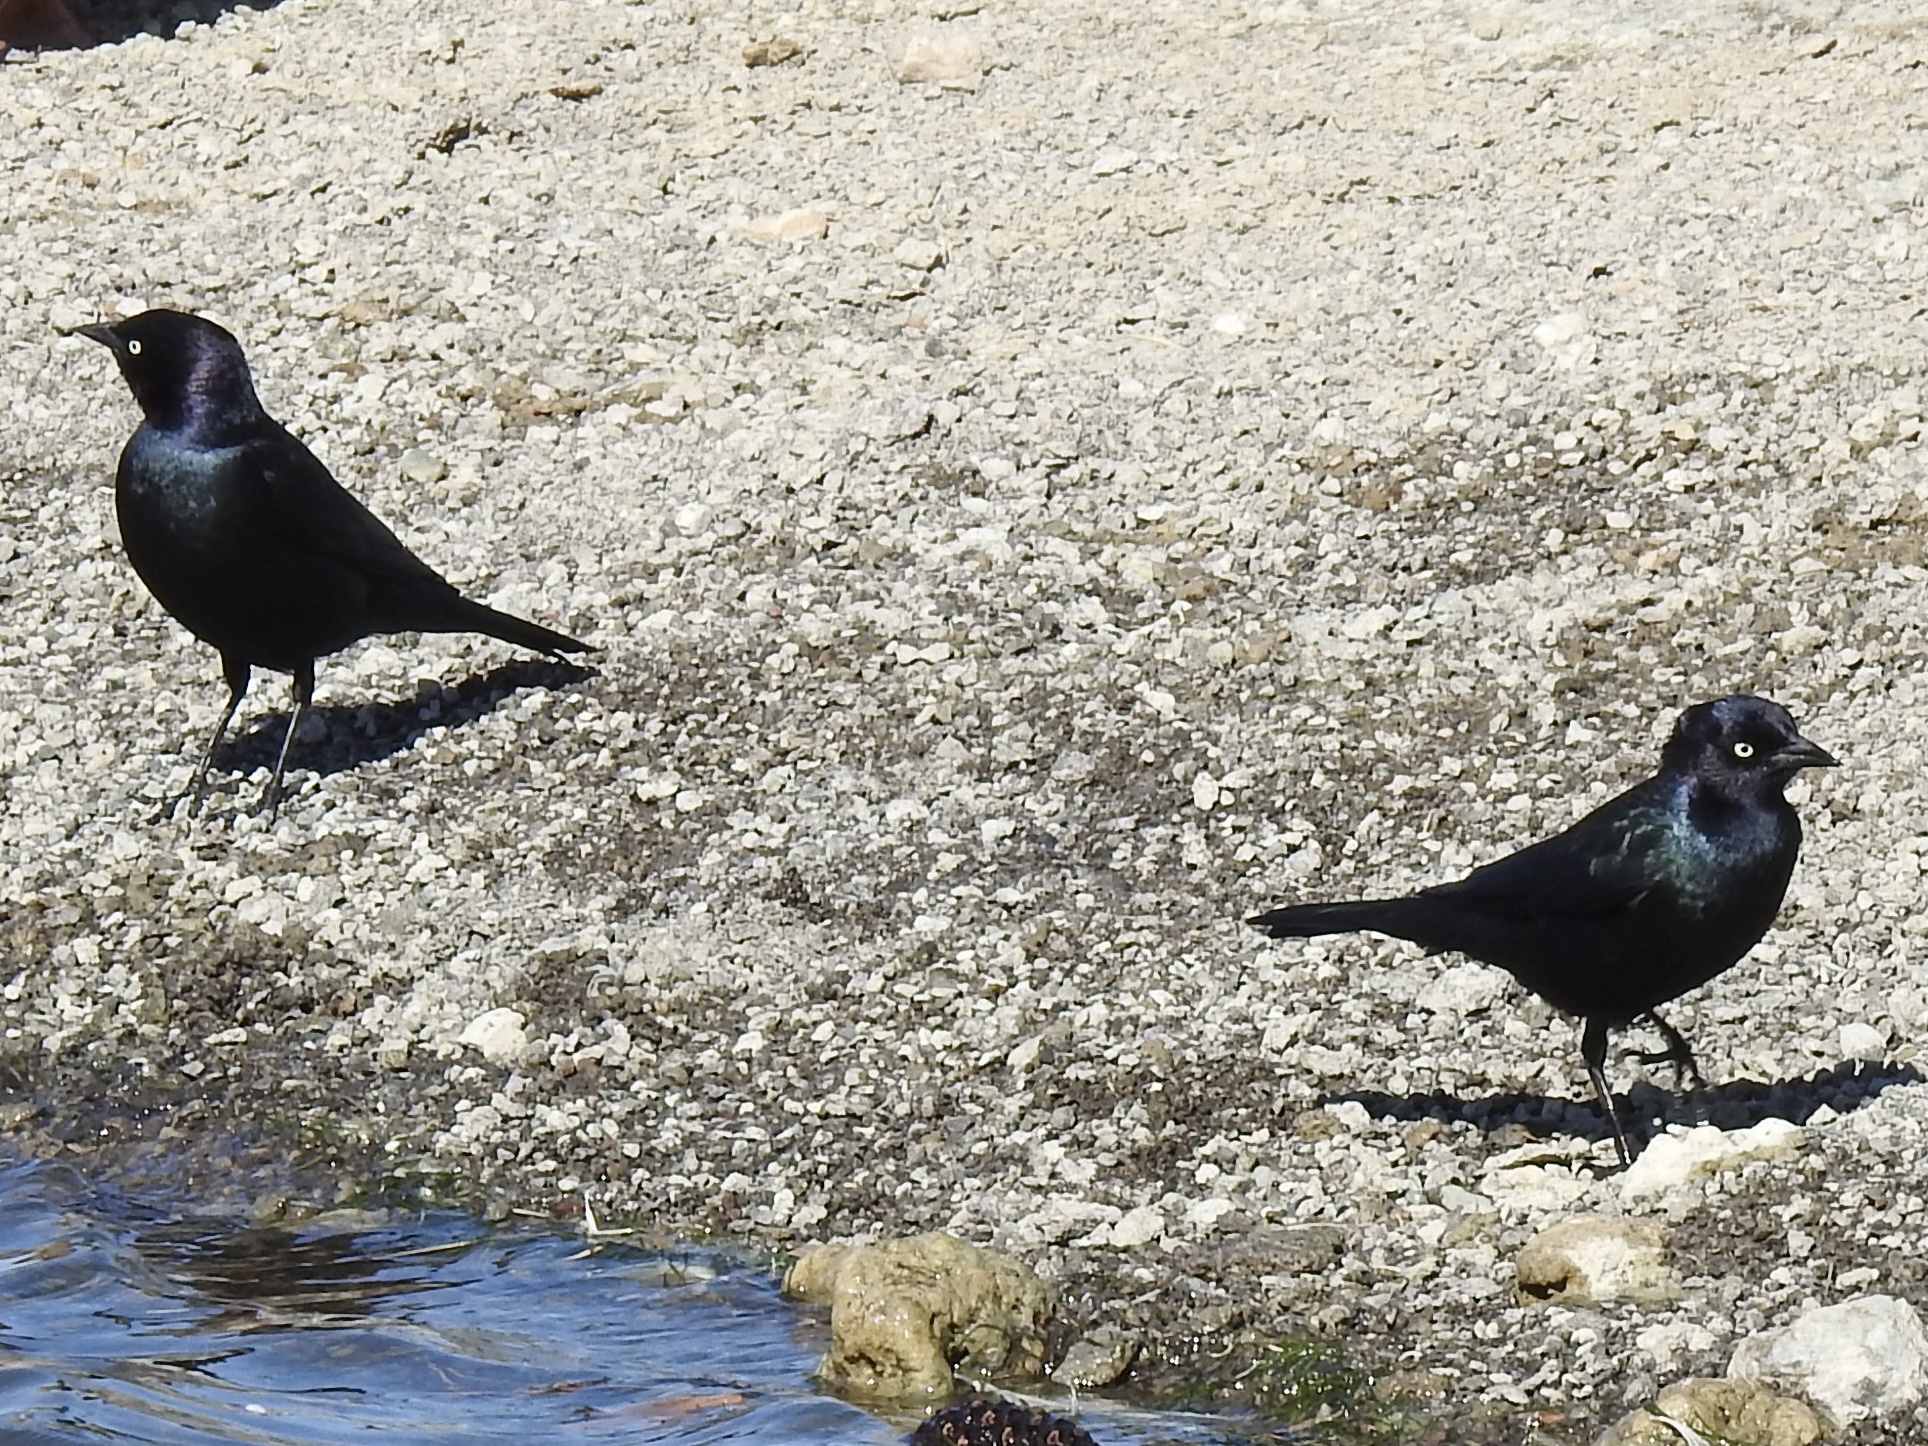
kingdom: Animalia
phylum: Chordata
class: Aves
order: Passeriformes
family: Icteridae
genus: Euphagus
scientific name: Euphagus cyanocephalus
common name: Brewer's blackbird
